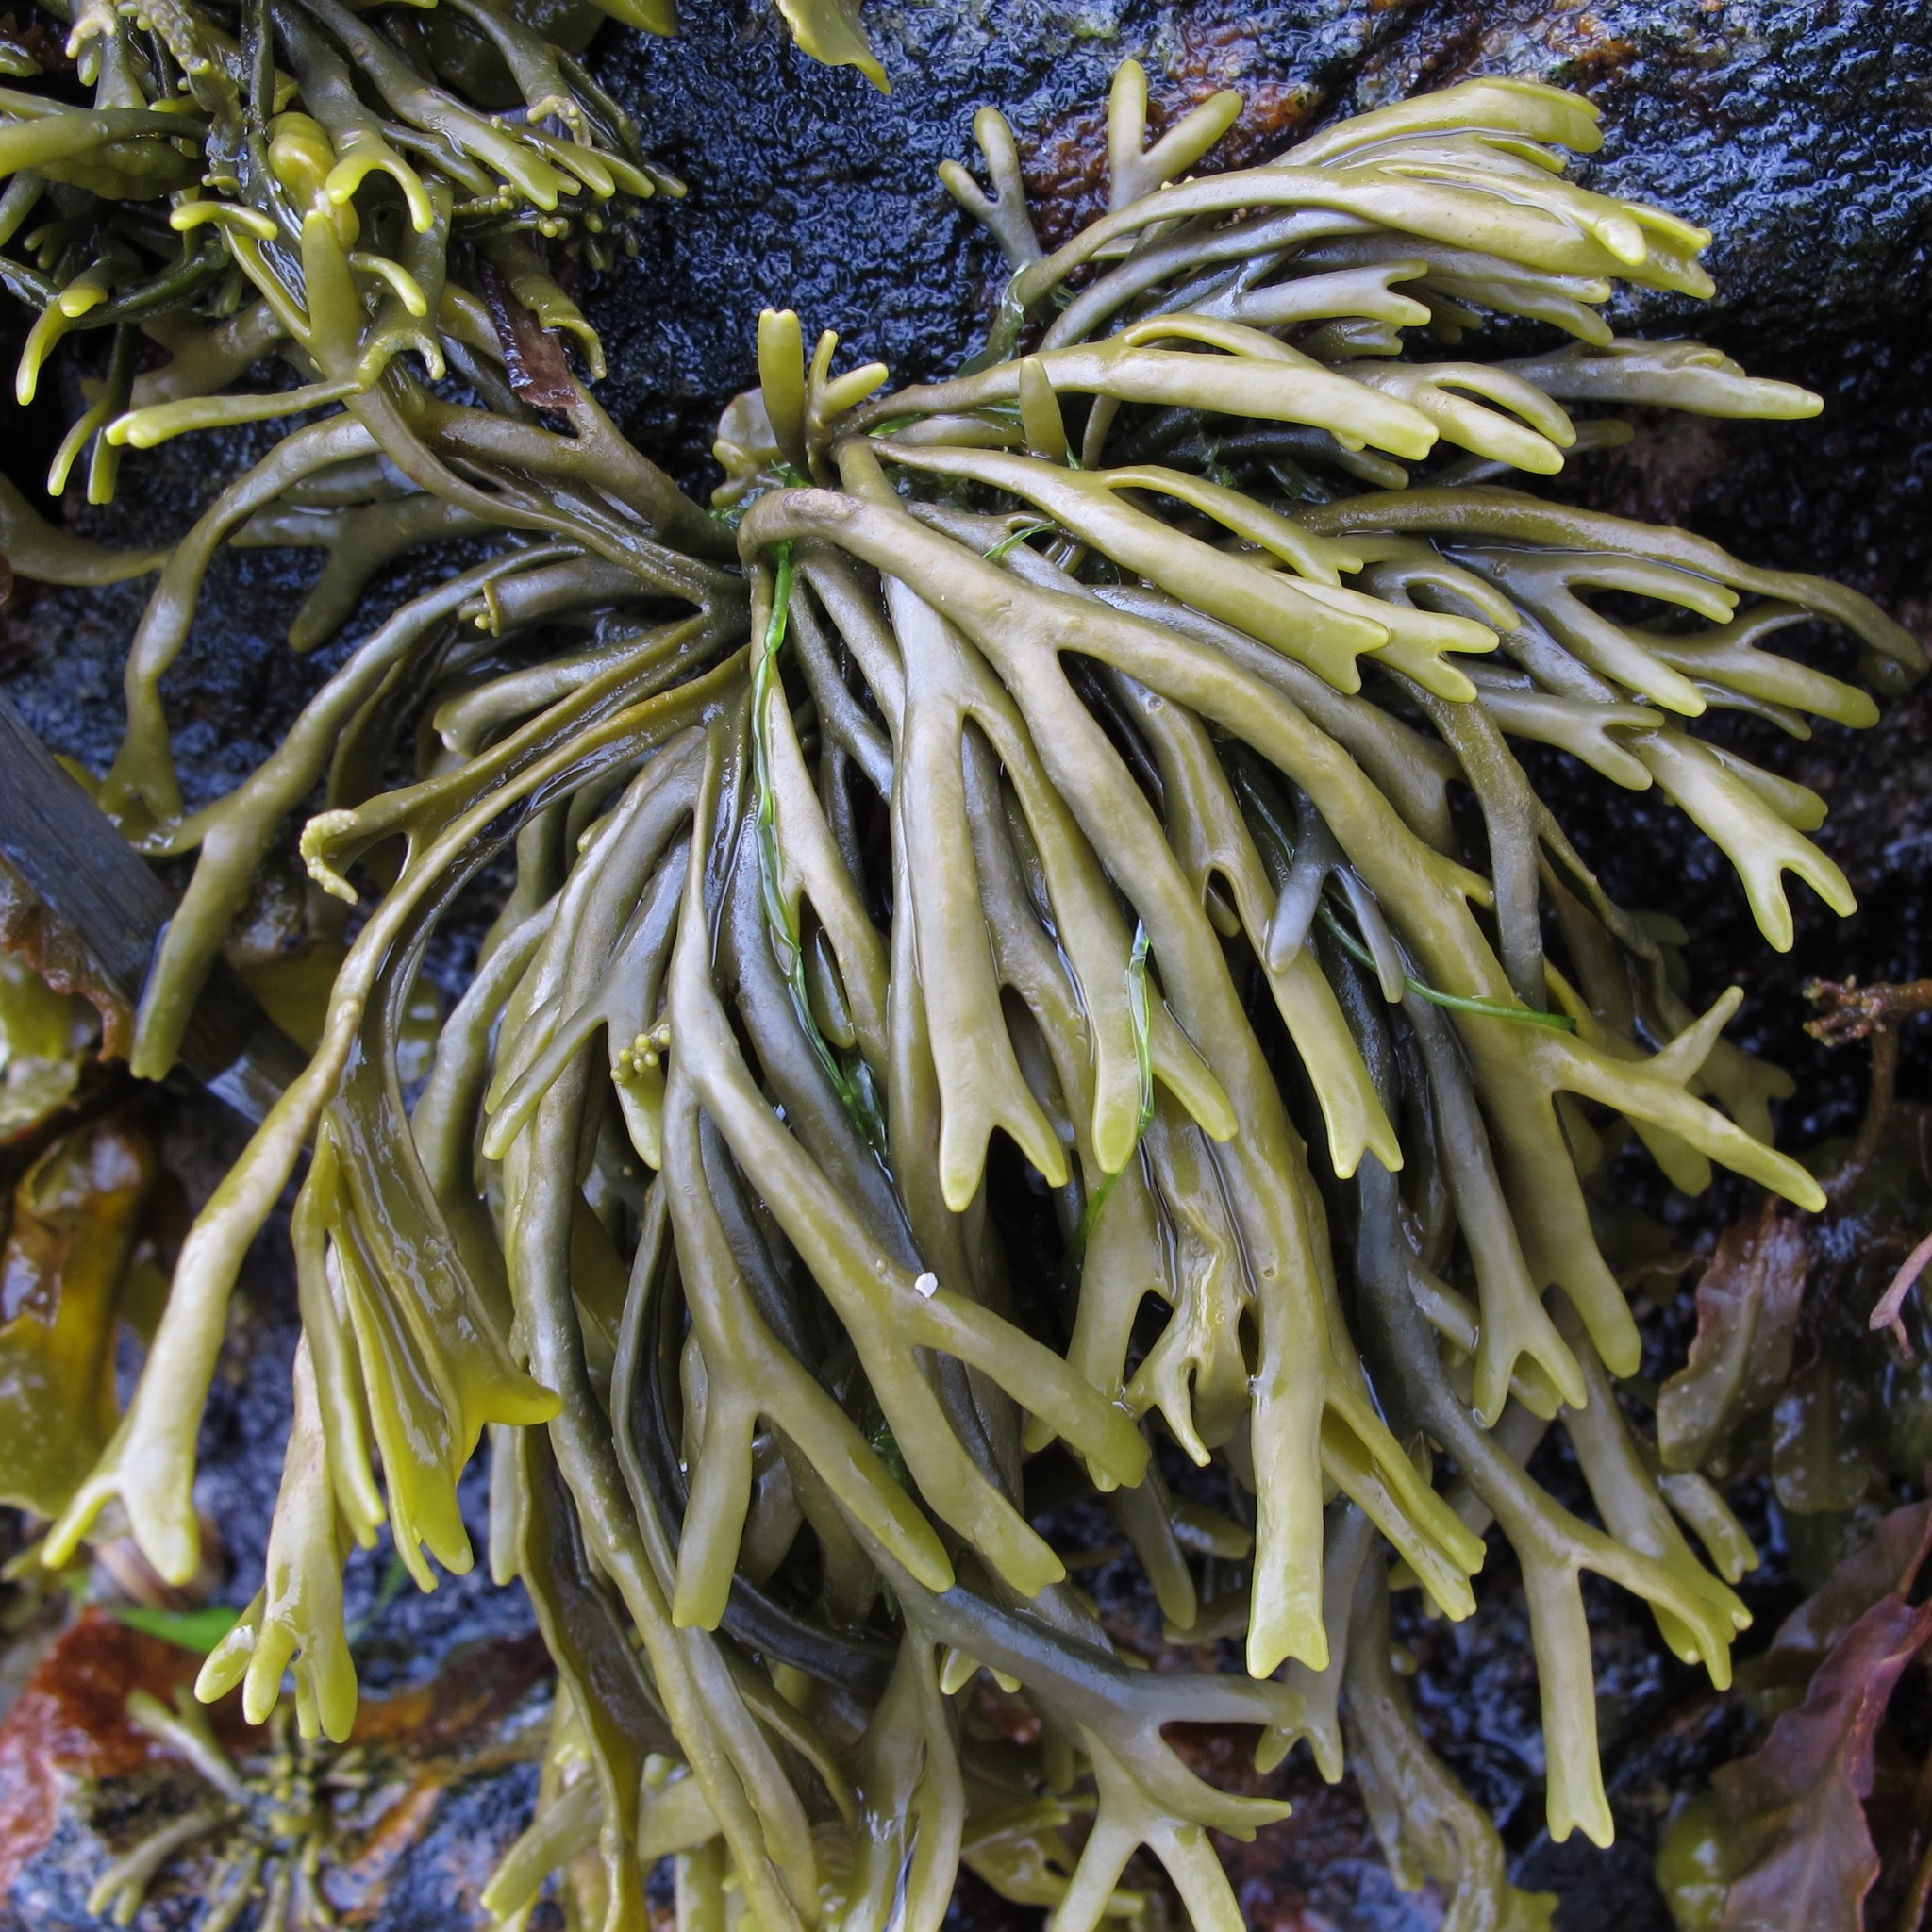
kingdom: Chromista
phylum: Ochrophyta
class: Phaeophyceae
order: Fucales
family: Fucaceae
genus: Pelvetia
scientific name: Pelvetia canaliculata
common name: Channelled wrack
